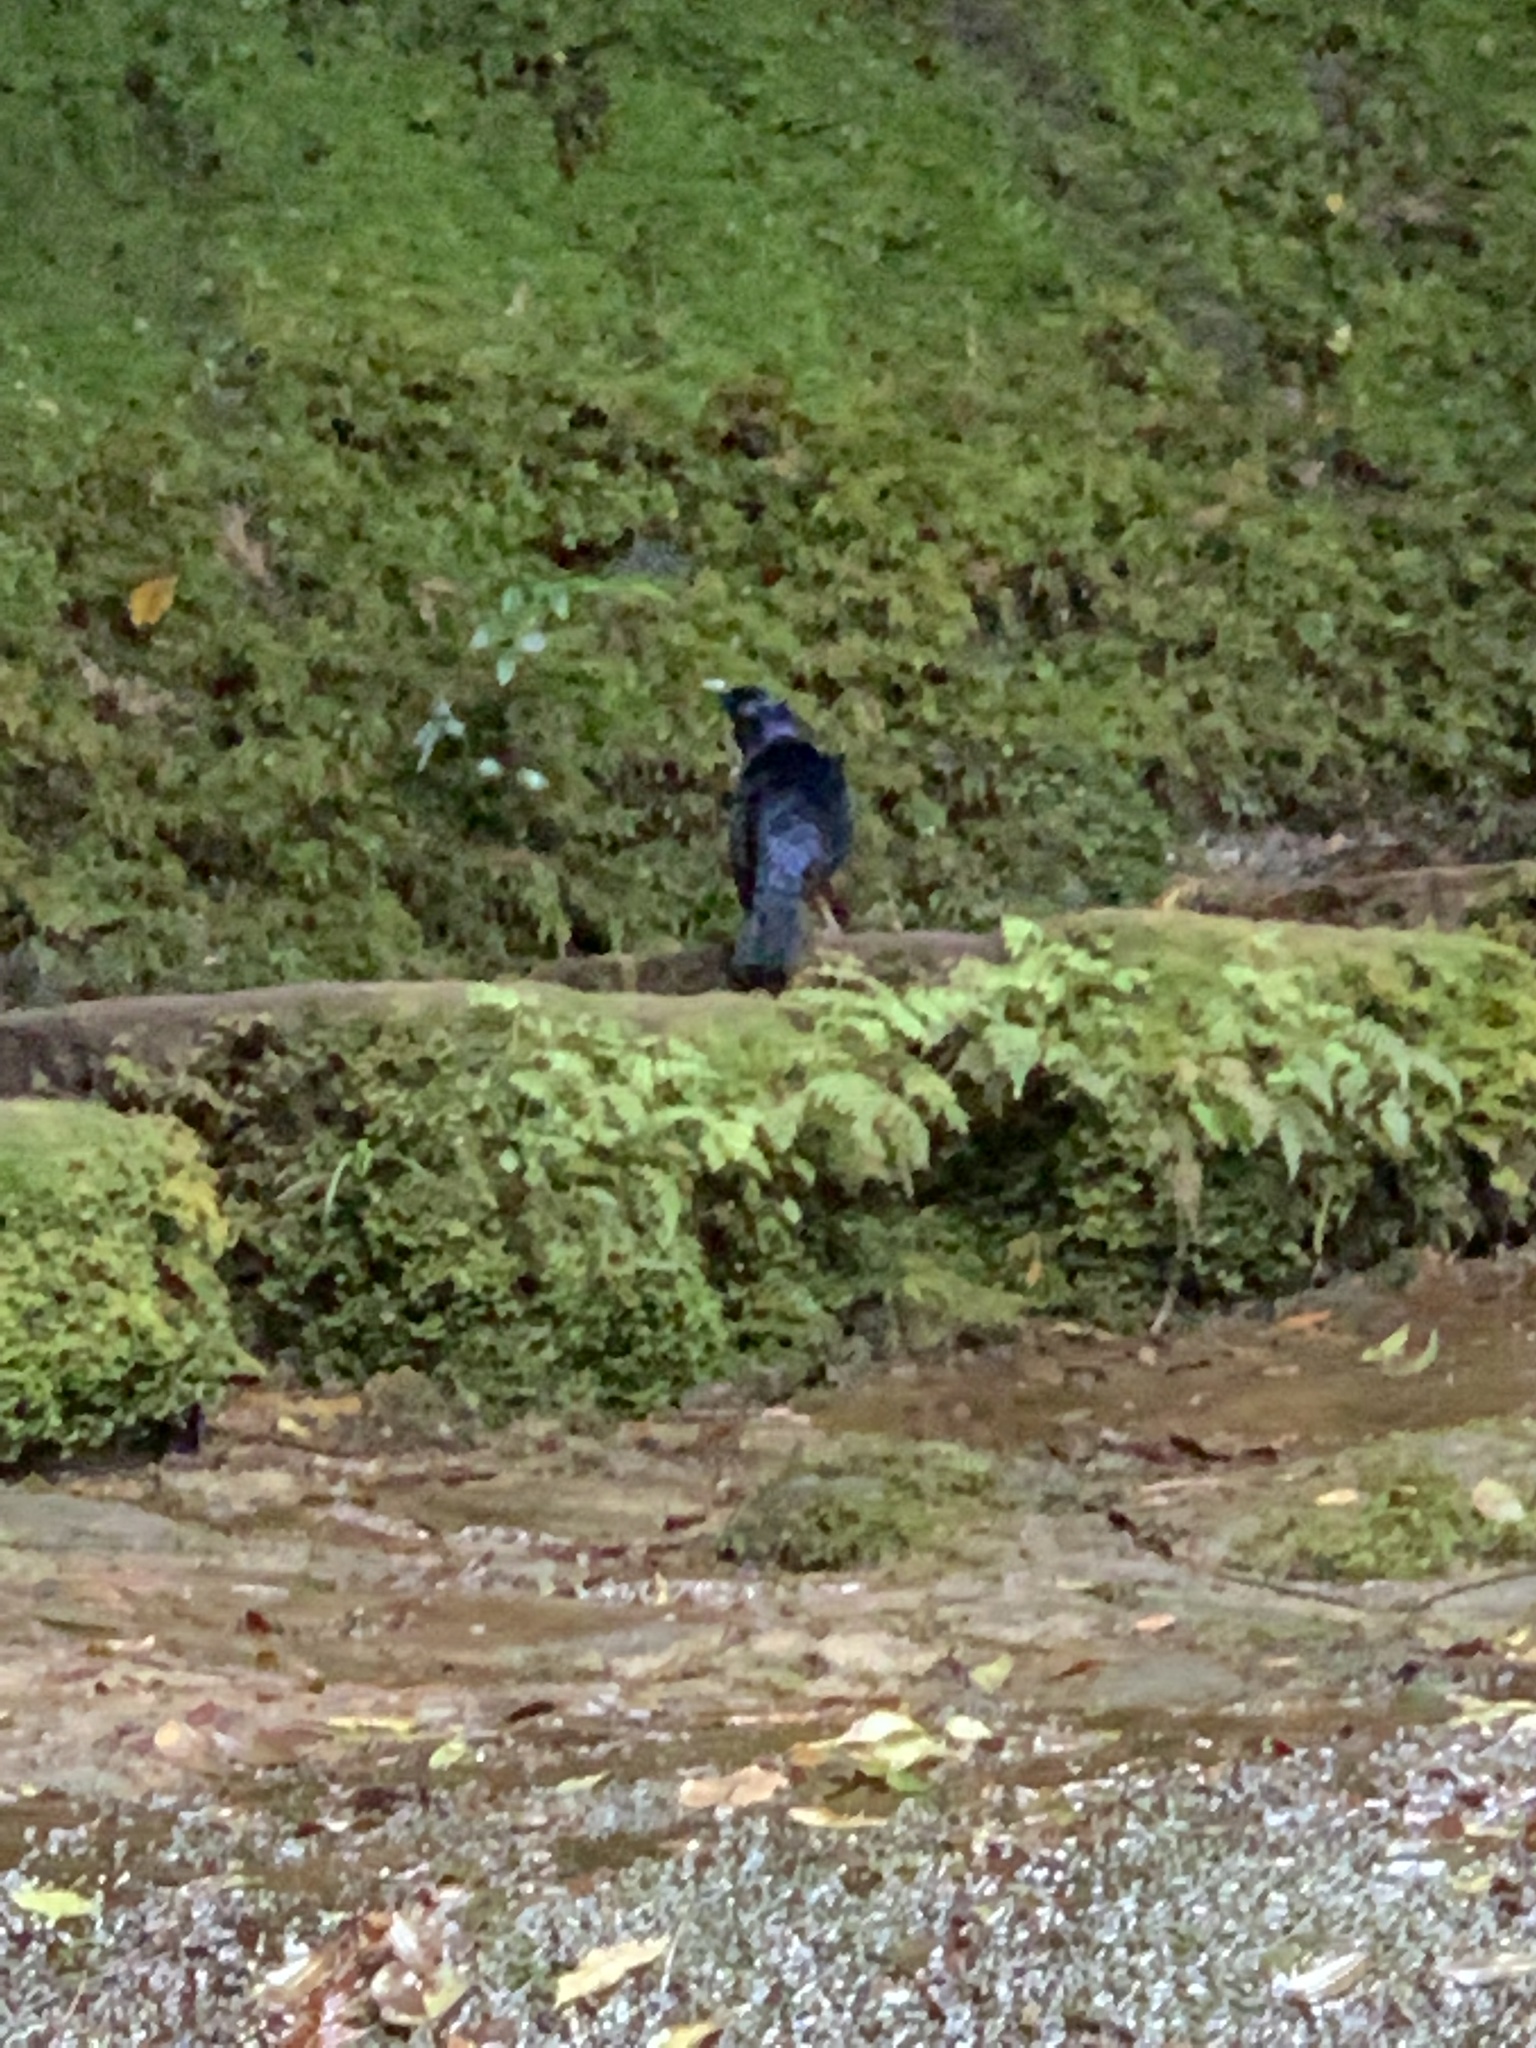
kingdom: Animalia
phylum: Chordata
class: Aves
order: Passeriformes
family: Ptilonorhynchidae
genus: Ptilonorhynchus
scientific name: Ptilonorhynchus violaceus
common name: Satin bowerbird
